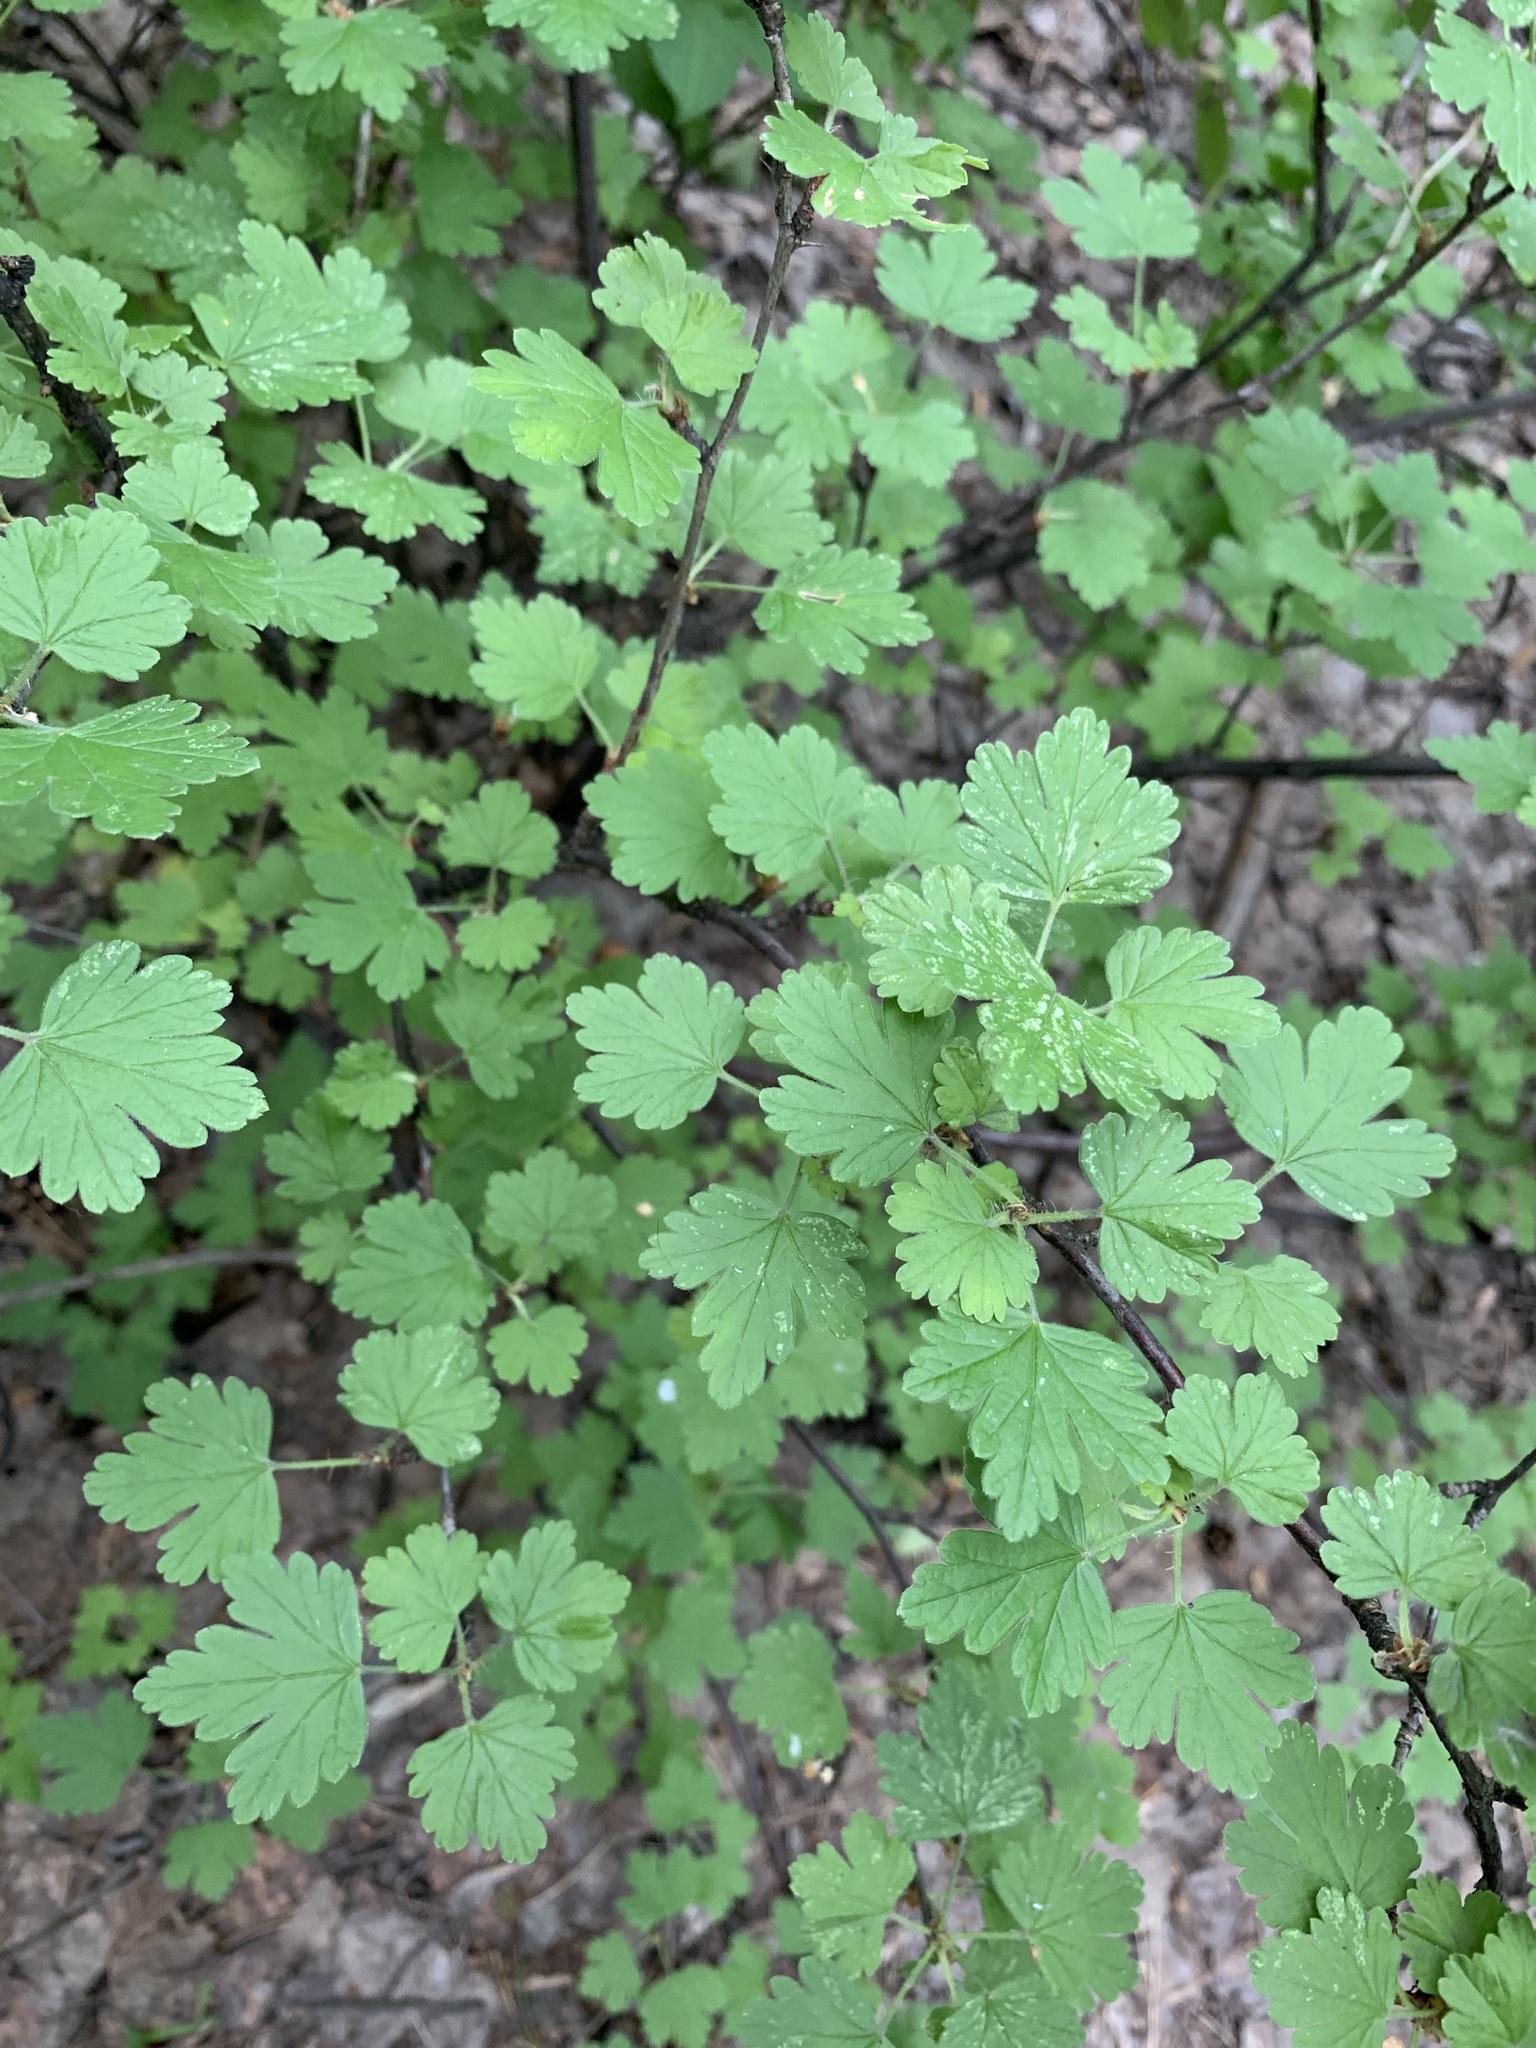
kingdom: Plantae
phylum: Tracheophyta
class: Magnoliopsida
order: Saxifragales
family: Grossulariaceae
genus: Ribes
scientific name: Ribes uva-crispa
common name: Gooseberry
